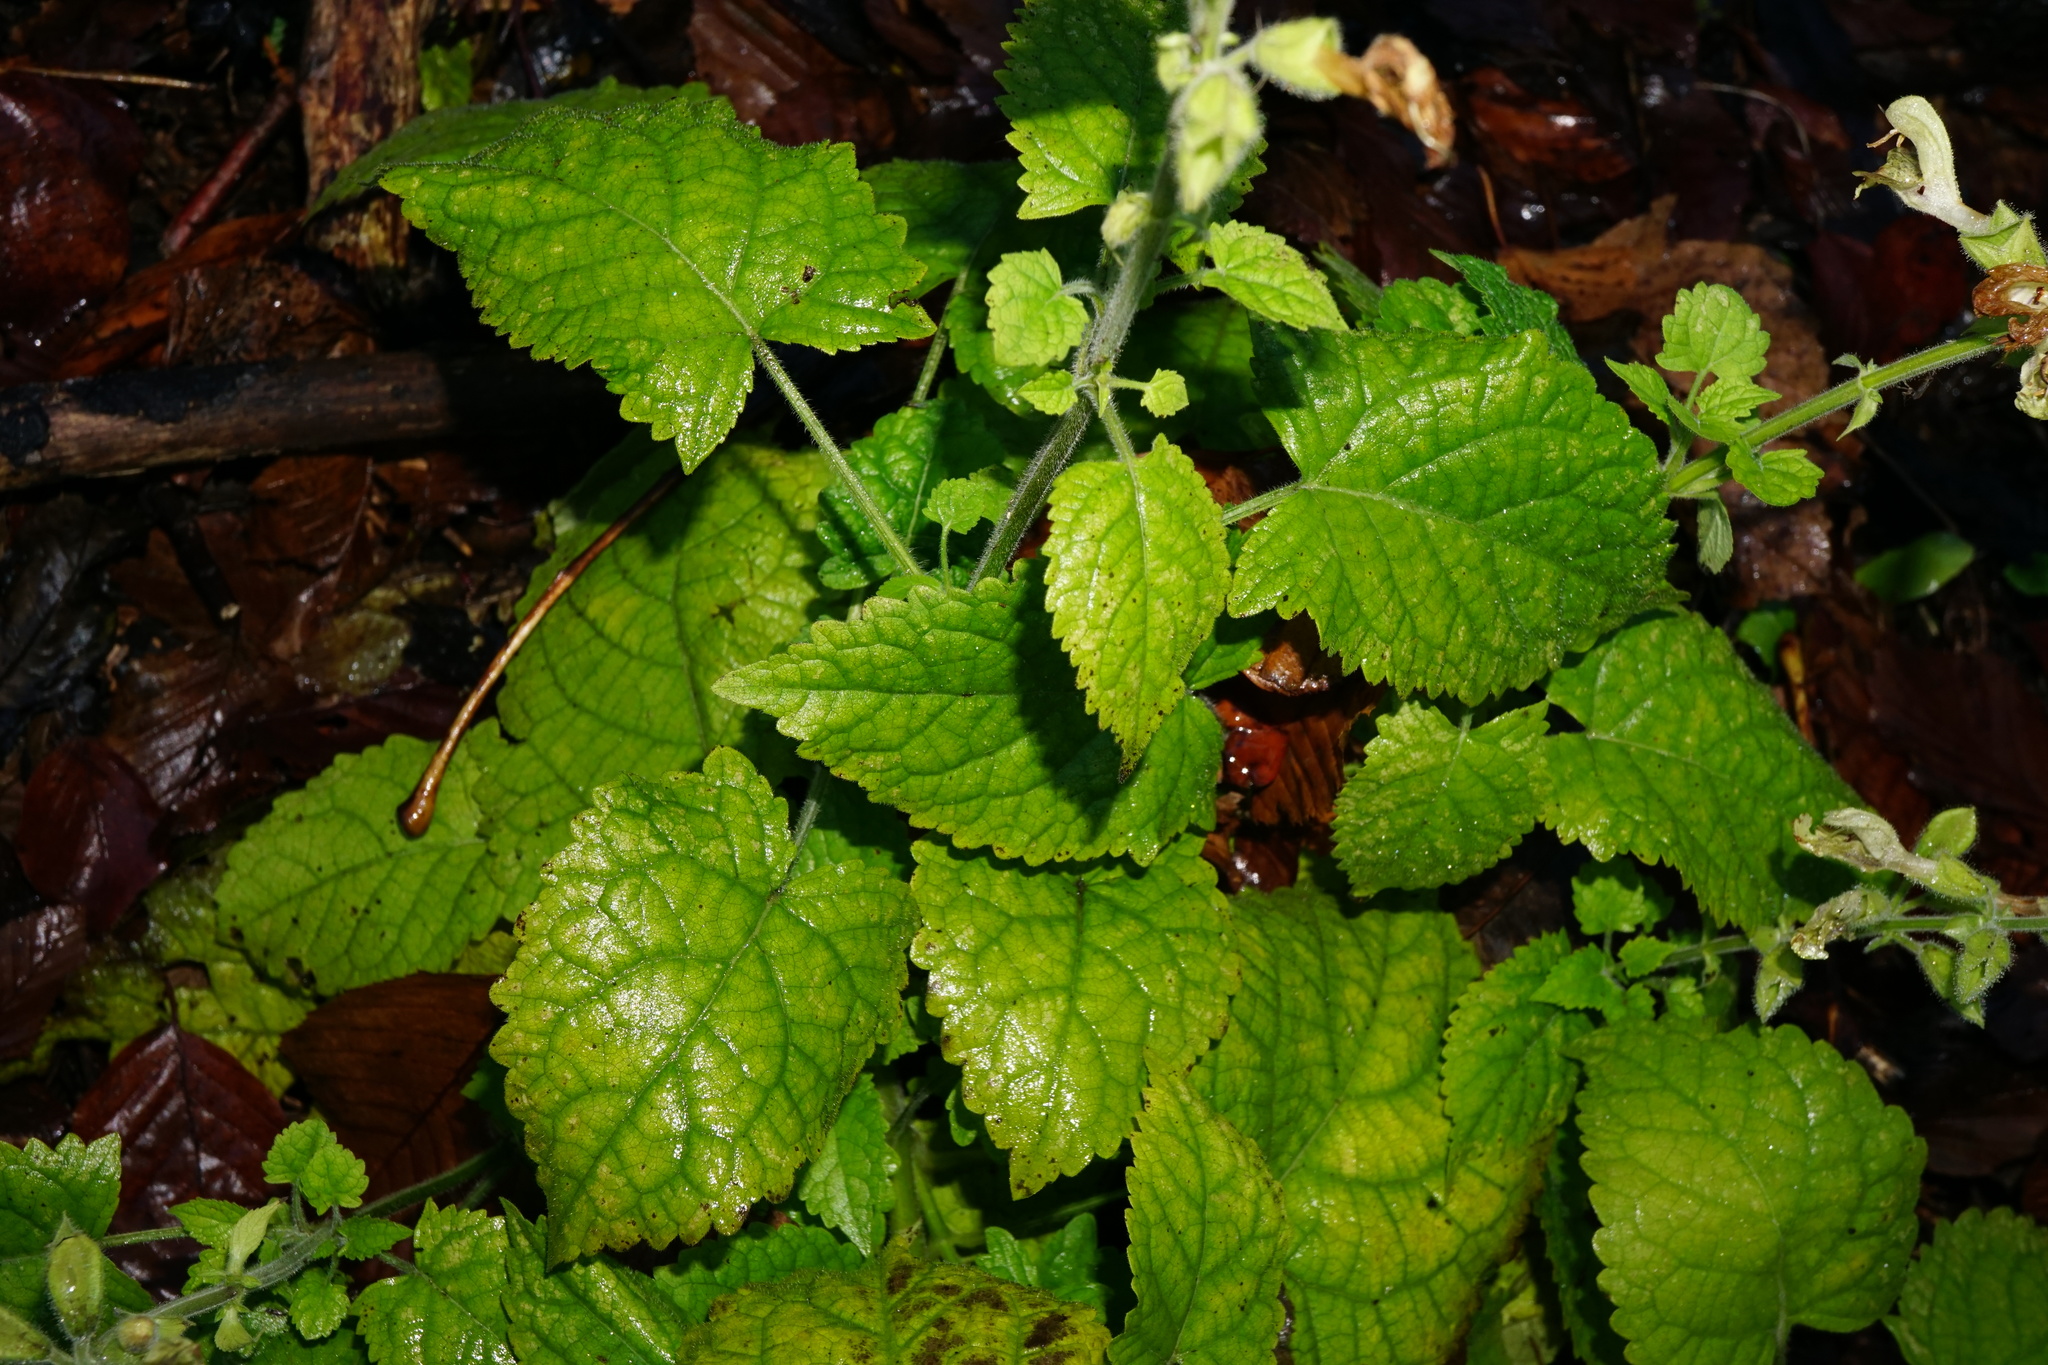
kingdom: Plantae
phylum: Tracheophyta
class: Magnoliopsida
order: Lamiales
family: Lamiaceae
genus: Salvia
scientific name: Salvia glutinosa
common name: Sticky clary
